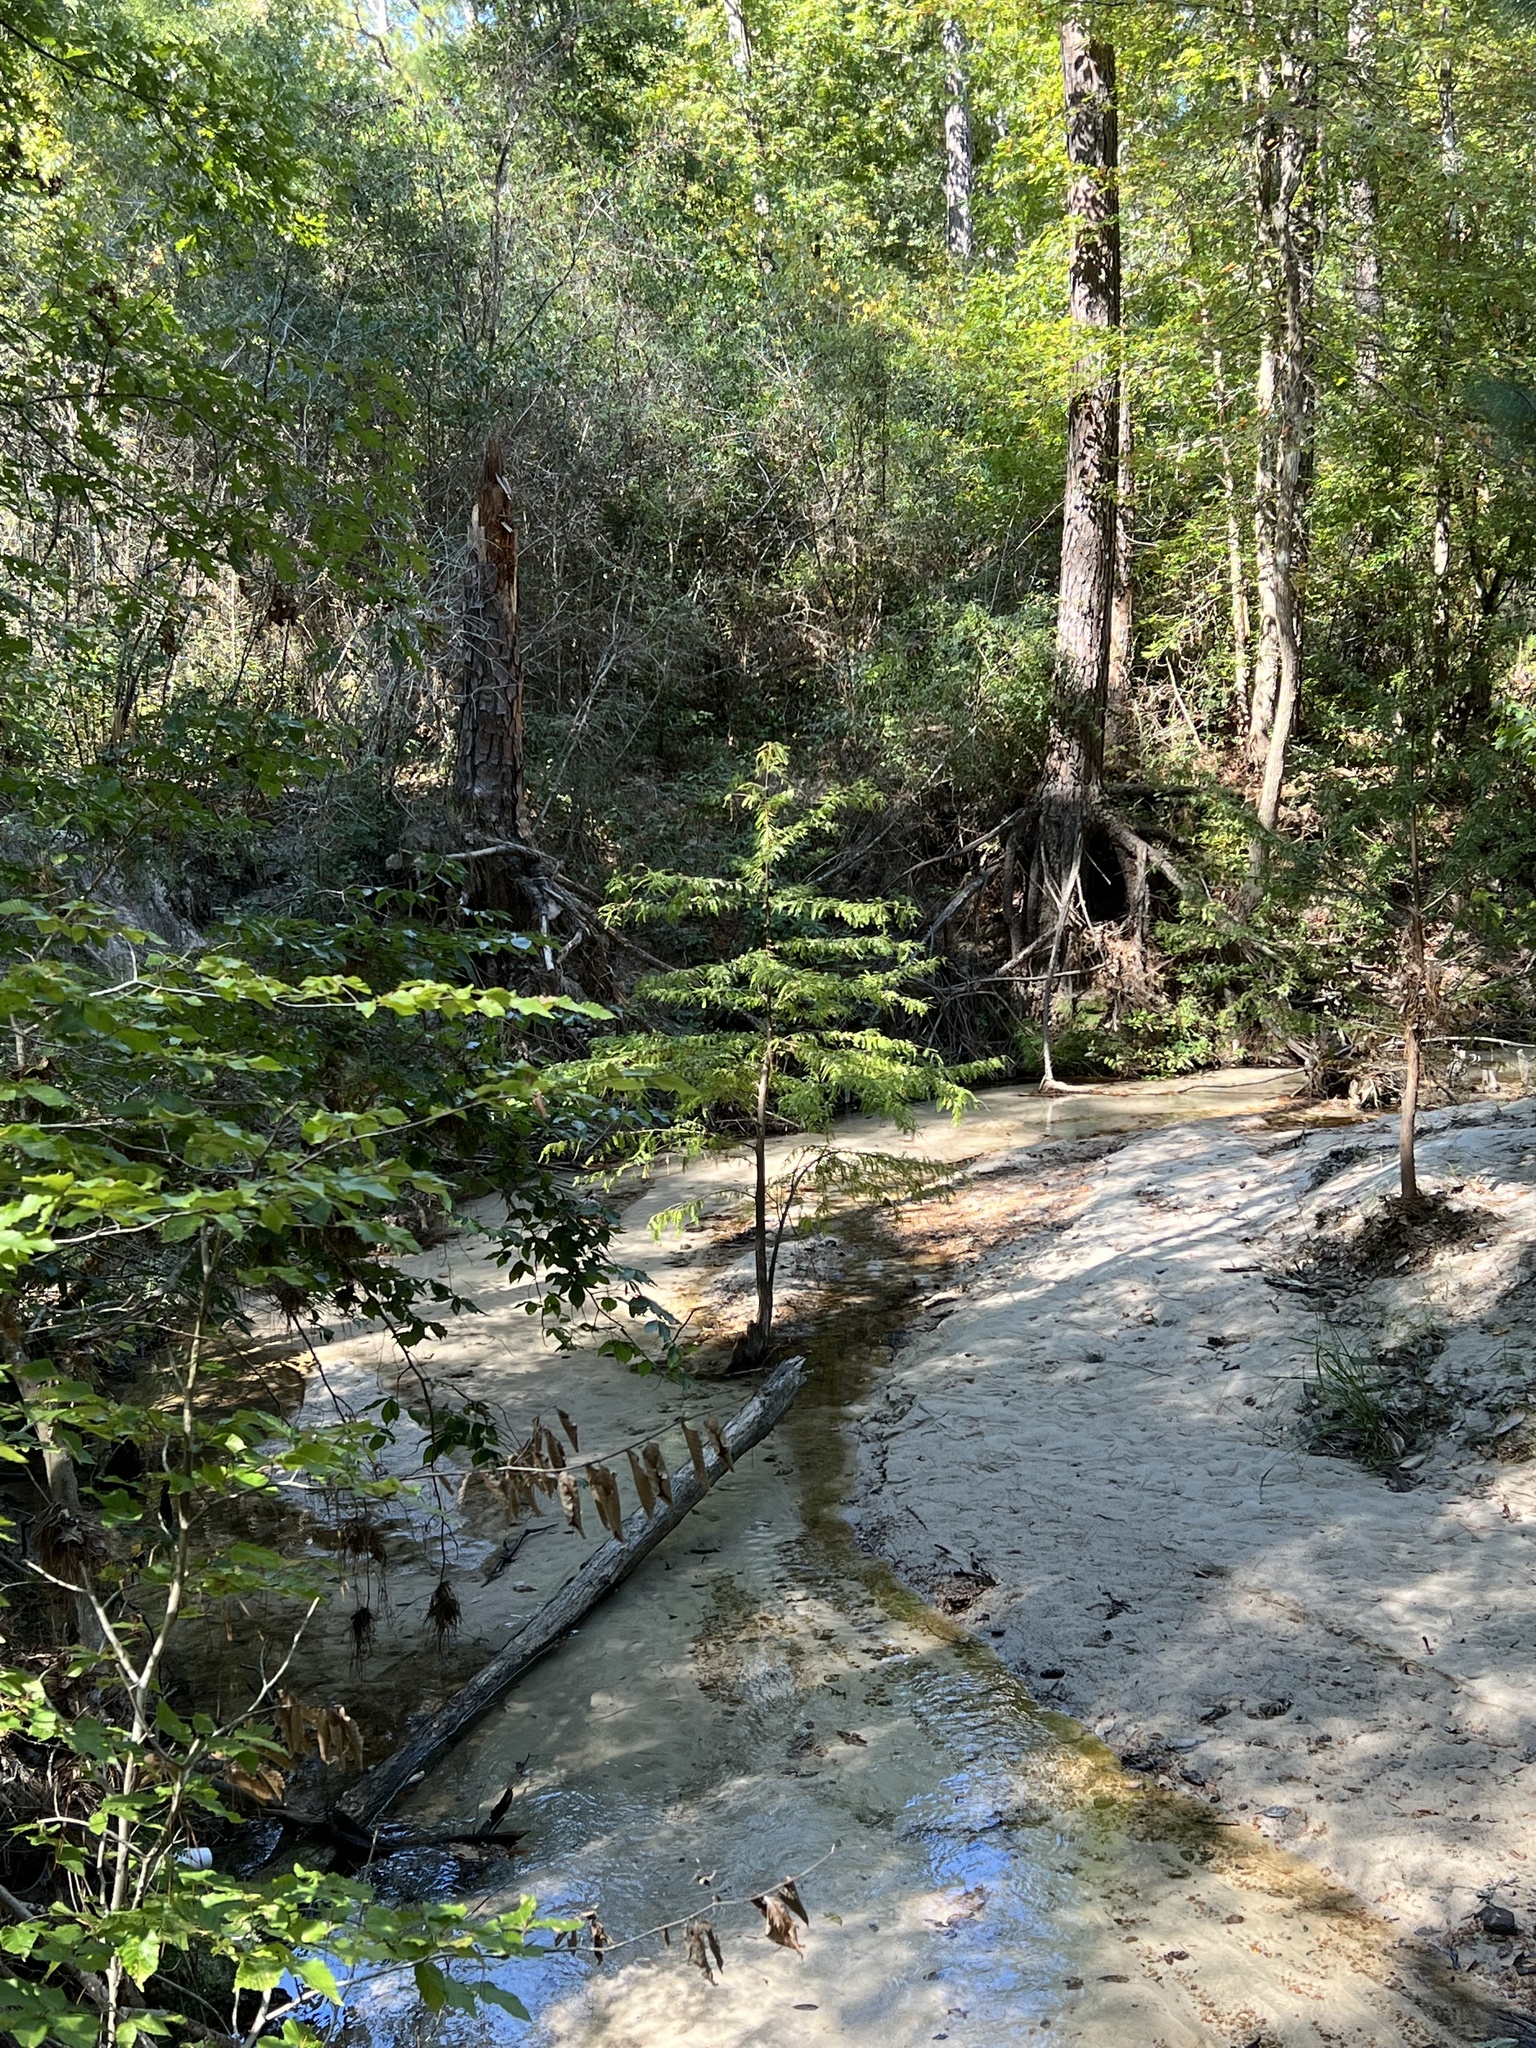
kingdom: Plantae
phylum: Tracheophyta
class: Pinopsida
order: Pinales
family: Cupressaceae
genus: Taxodium
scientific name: Taxodium distichum
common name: Bald cypress
